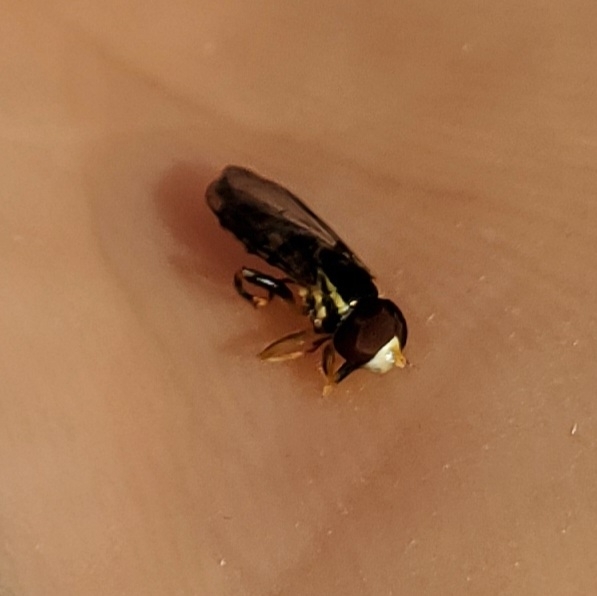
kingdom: Animalia
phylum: Arthropoda
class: Insecta
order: Diptera
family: Syrphidae
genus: Toxomerus
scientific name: Toxomerus geminatus
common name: Eastern calligrapher
